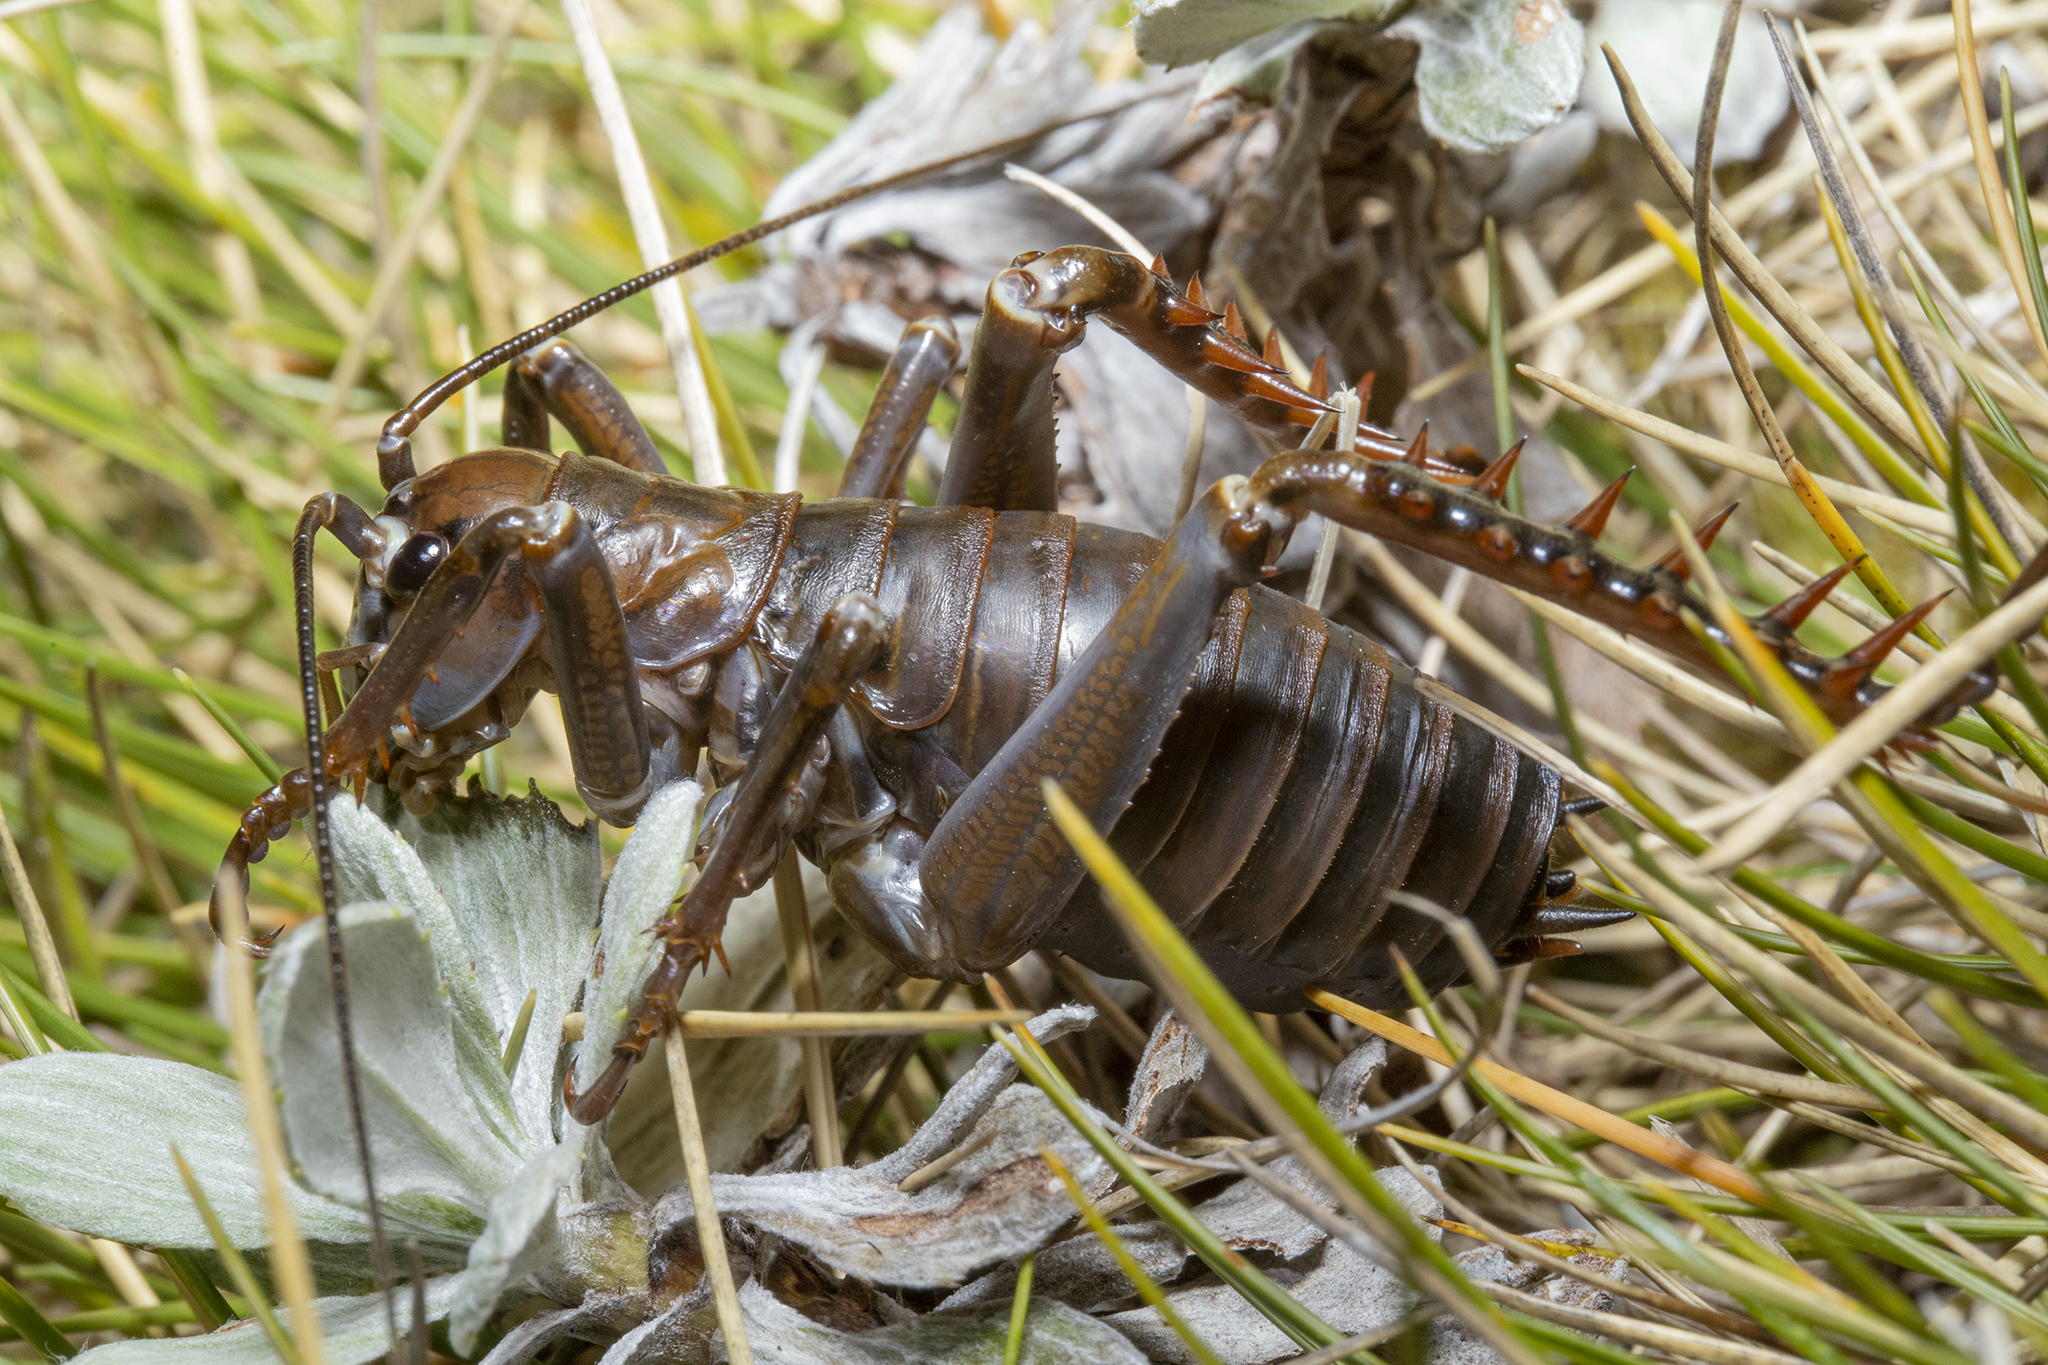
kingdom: Animalia
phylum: Arthropoda
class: Insecta
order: Orthoptera
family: Anostostomatidae
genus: Deinacrida
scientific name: Deinacrida talpa
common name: Giant mole weta
